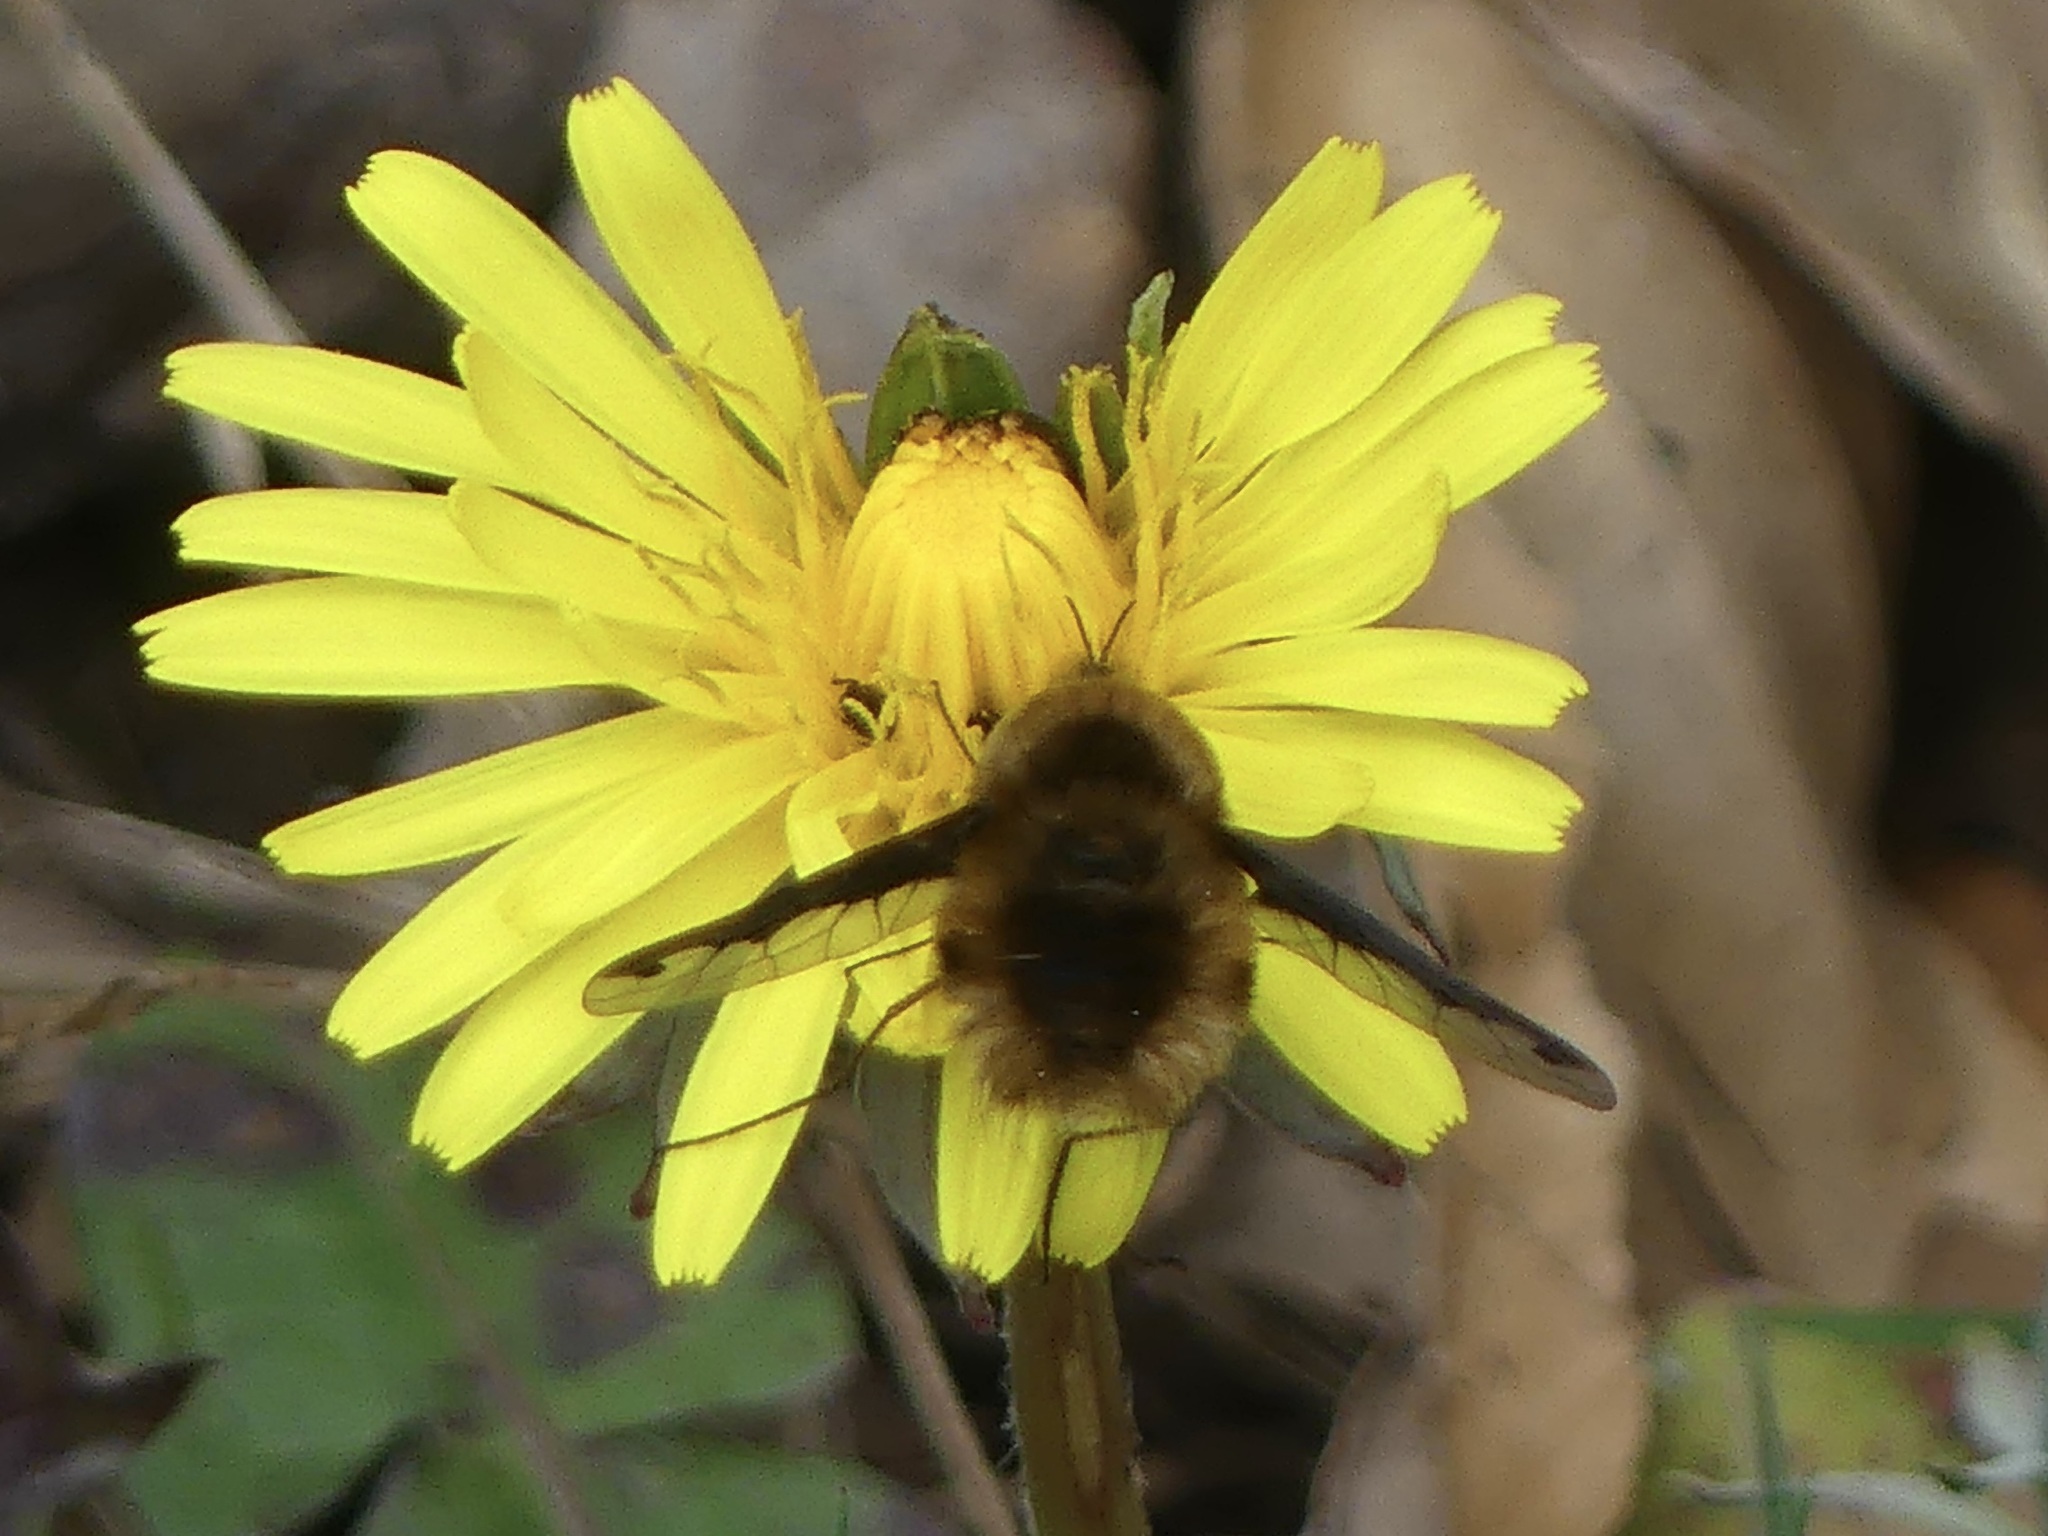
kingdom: Animalia
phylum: Arthropoda
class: Insecta
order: Diptera
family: Bombyliidae
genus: Bombylius
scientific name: Bombylius major
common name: Bee fly
